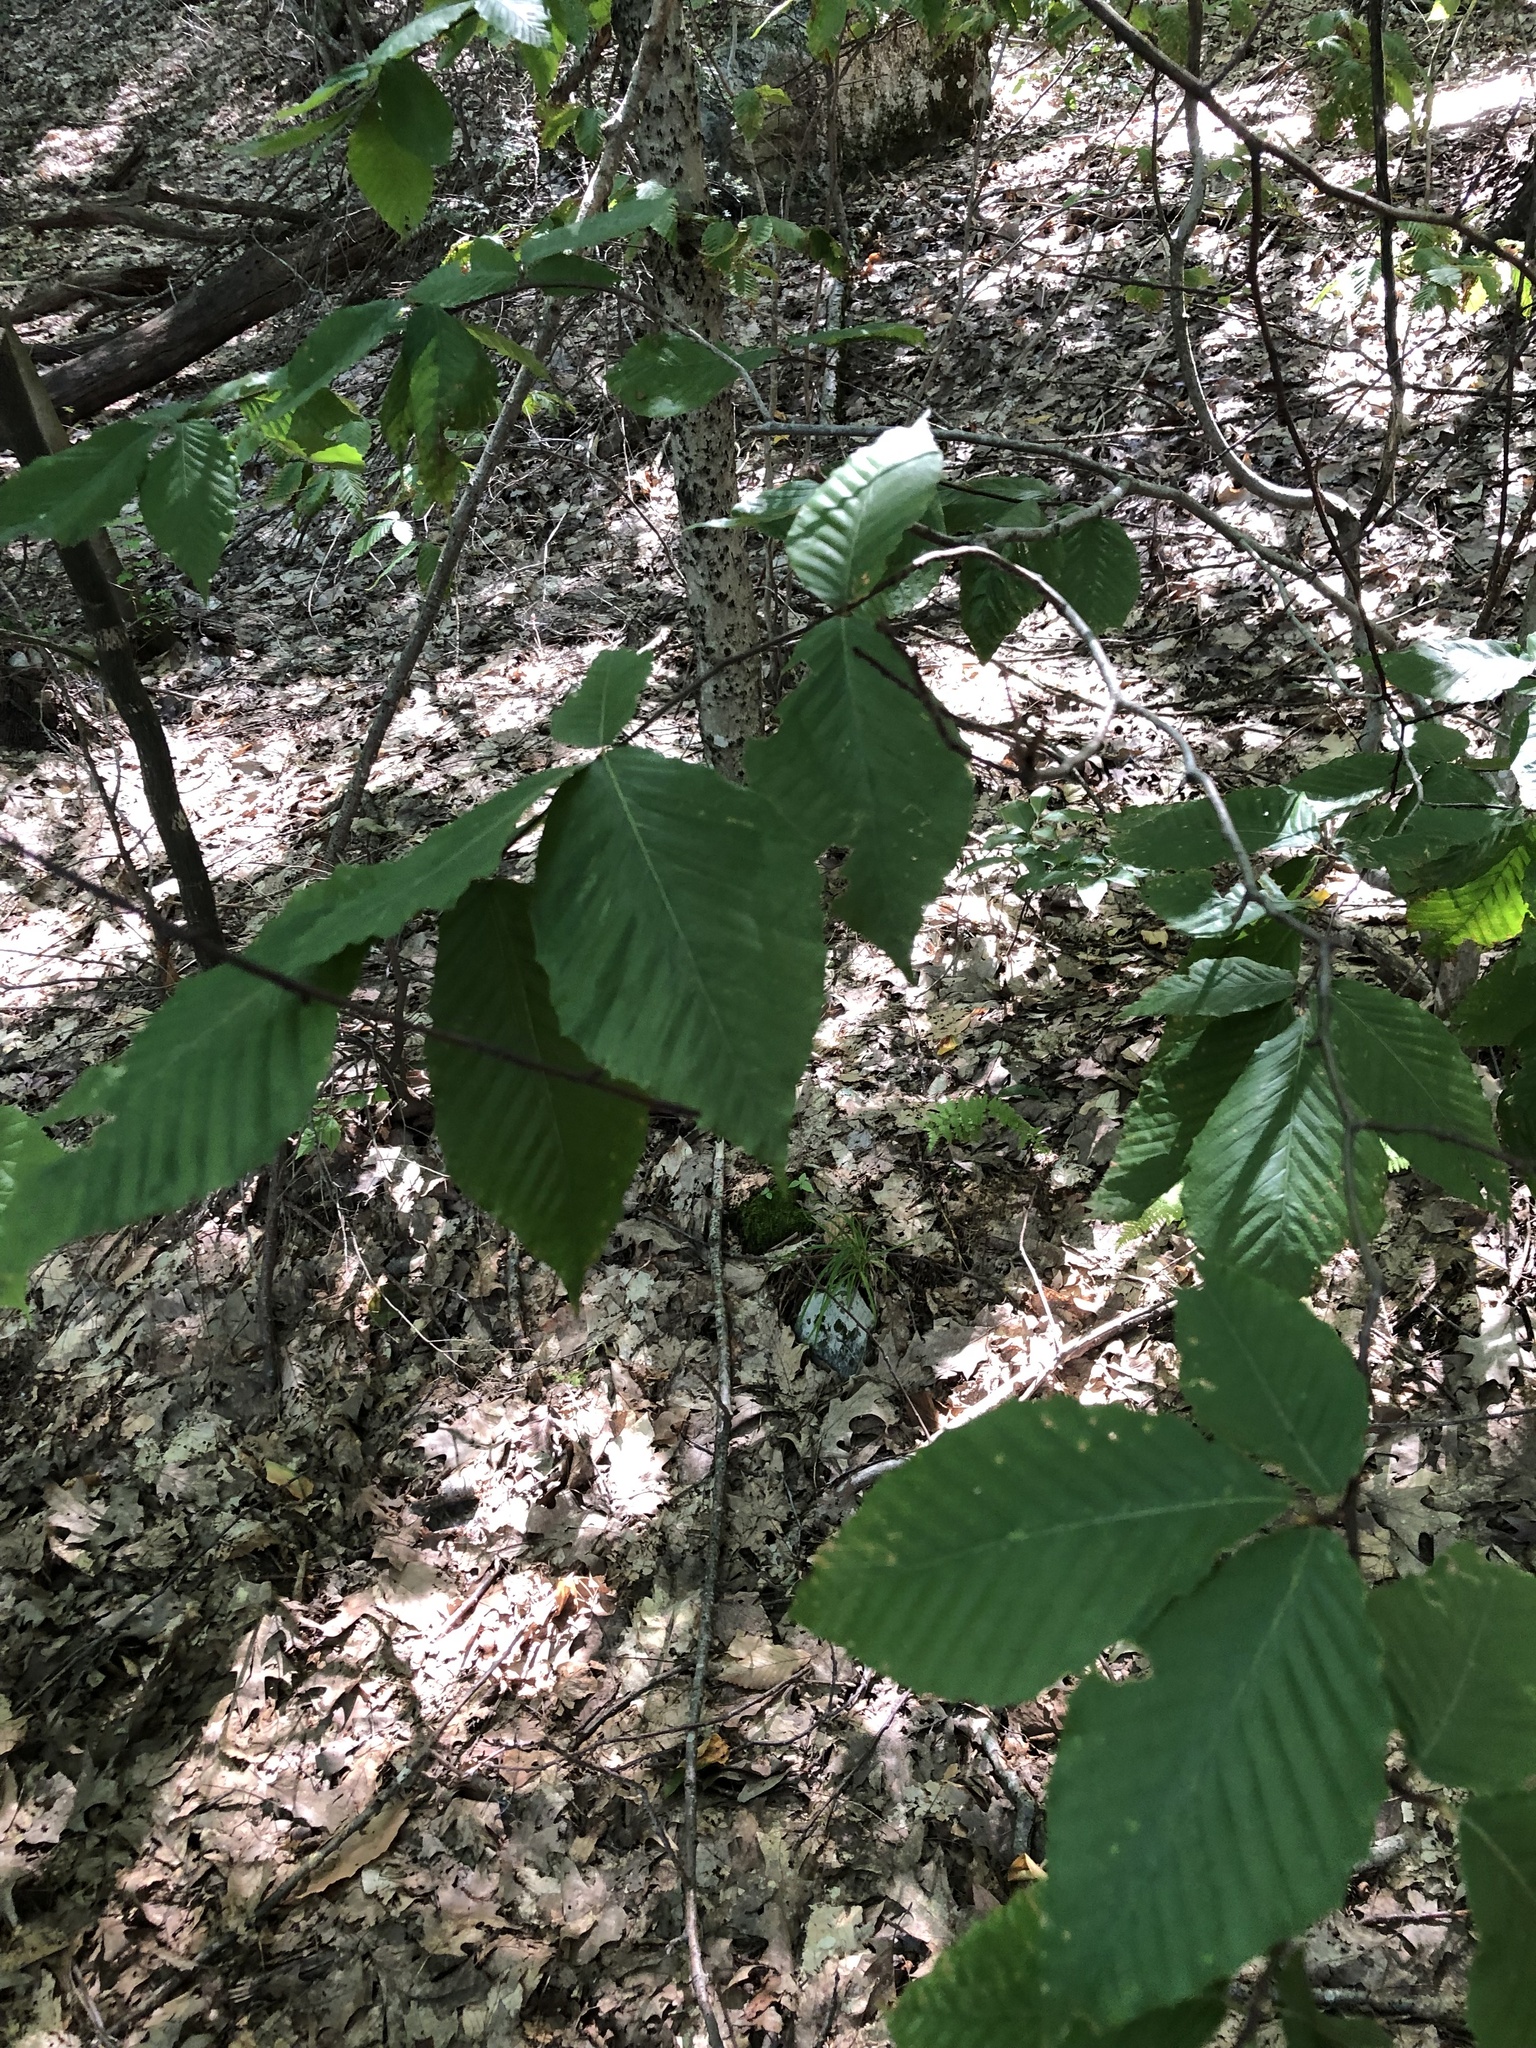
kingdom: Plantae
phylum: Tracheophyta
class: Magnoliopsida
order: Fagales
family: Fagaceae
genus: Fagus
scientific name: Fagus grandifolia
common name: American beech
